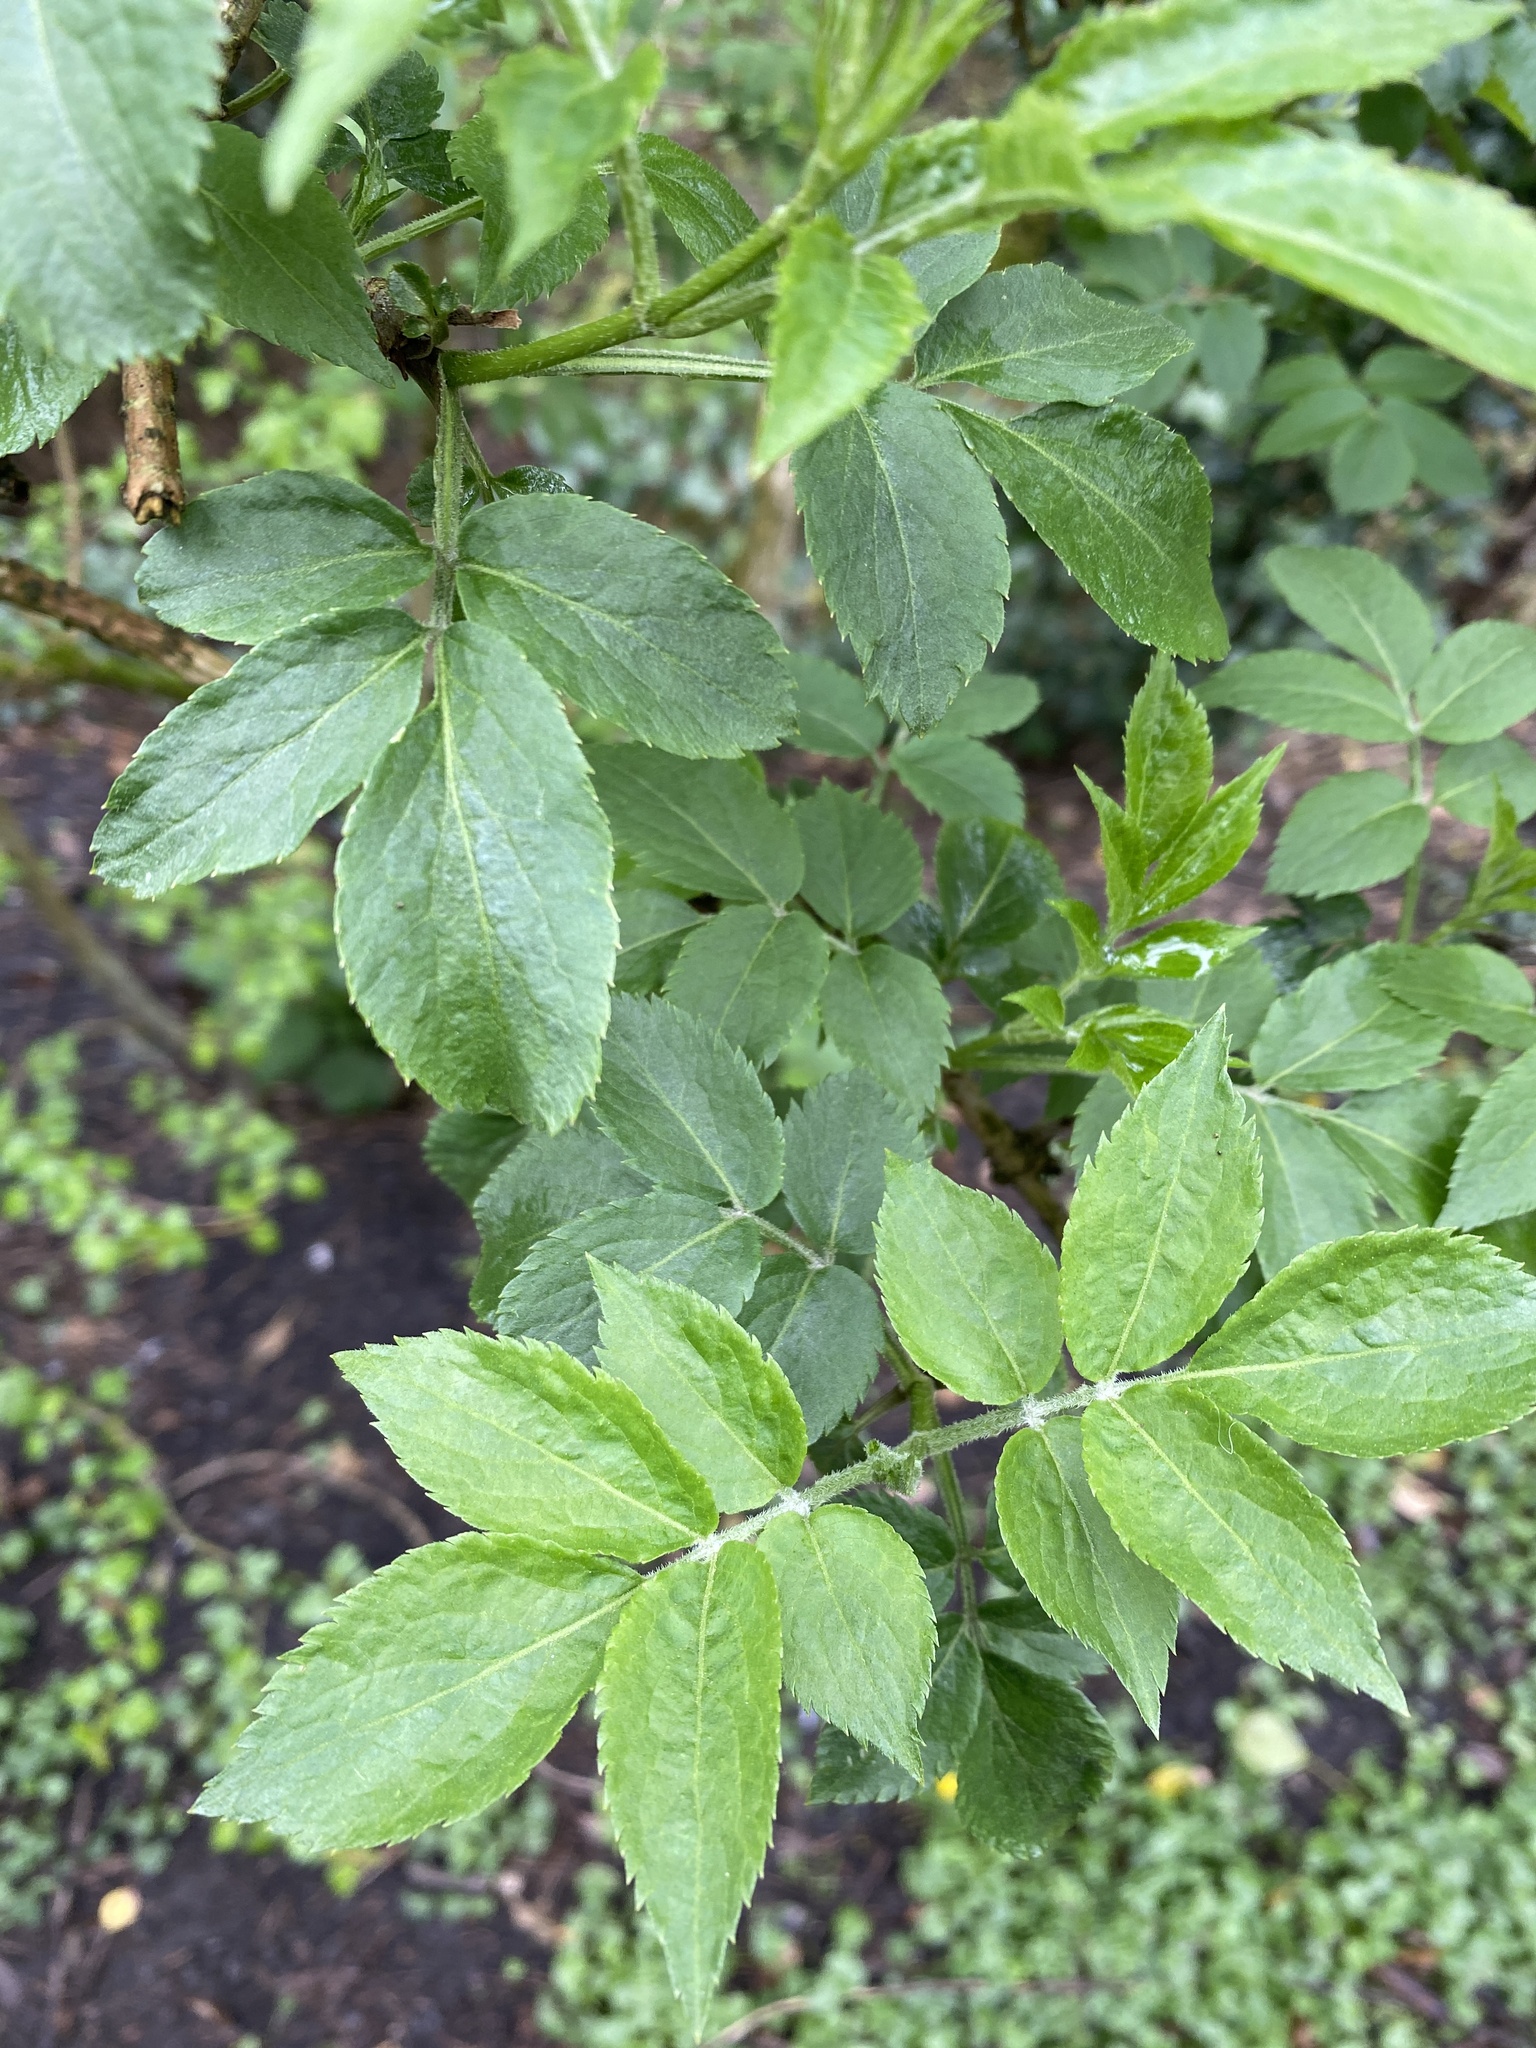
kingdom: Plantae
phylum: Tracheophyta
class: Magnoliopsida
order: Dipsacales
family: Viburnaceae
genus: Sambucus
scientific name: Sambucus nigra
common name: Elder
